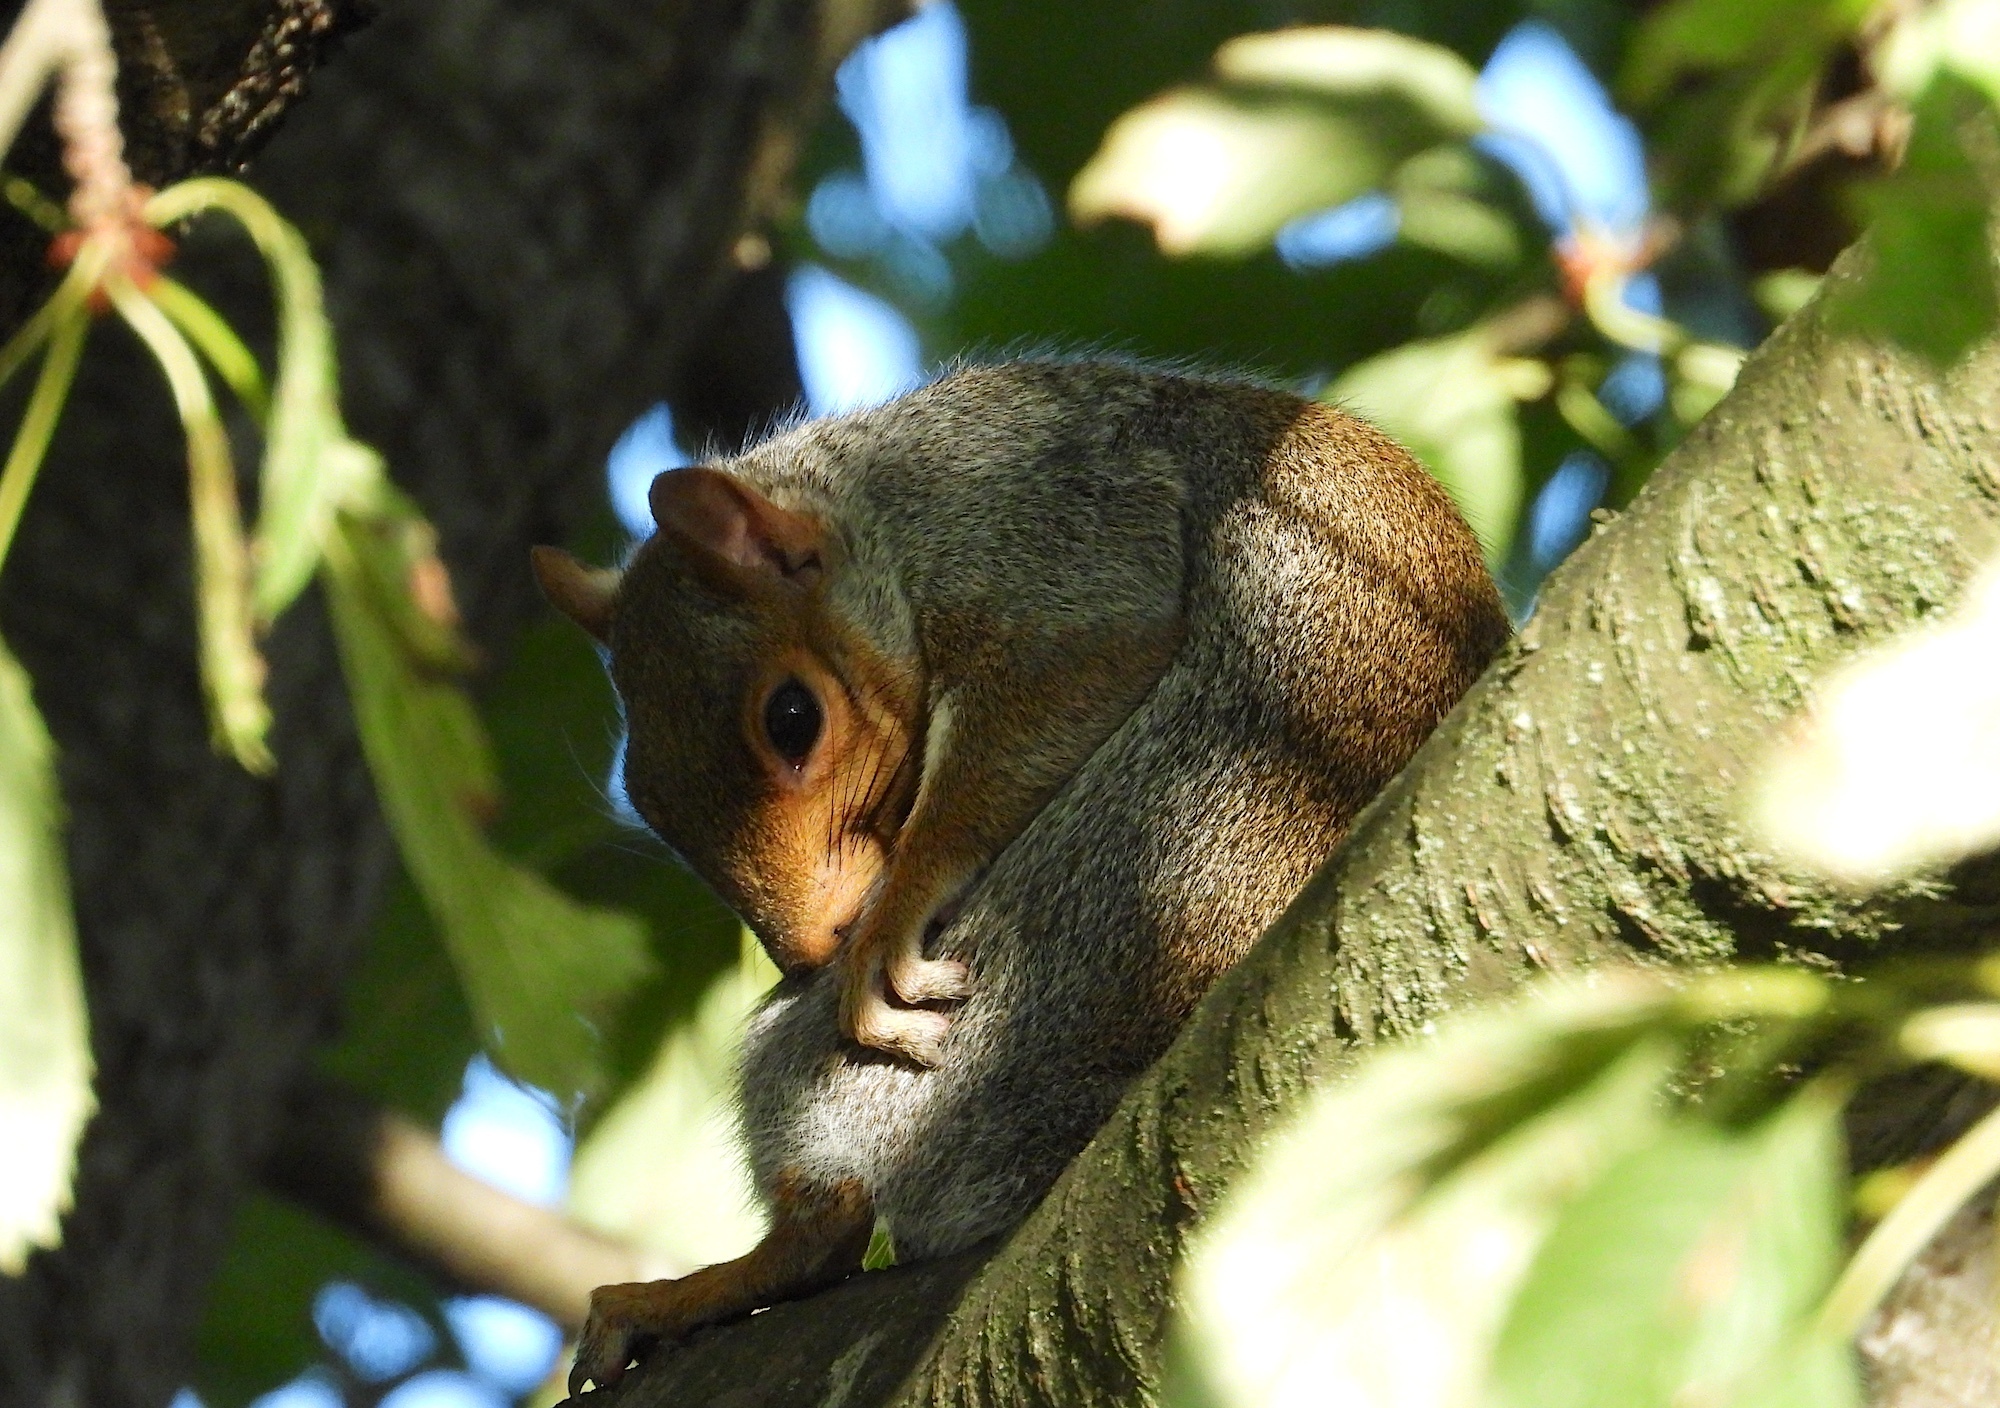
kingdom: Animalia
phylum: Chordata
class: Mammalia
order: Rodentia
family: Sciuridae
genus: Sciurus
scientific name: Sciurus carolinensis
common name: Eastern gray squirrel
